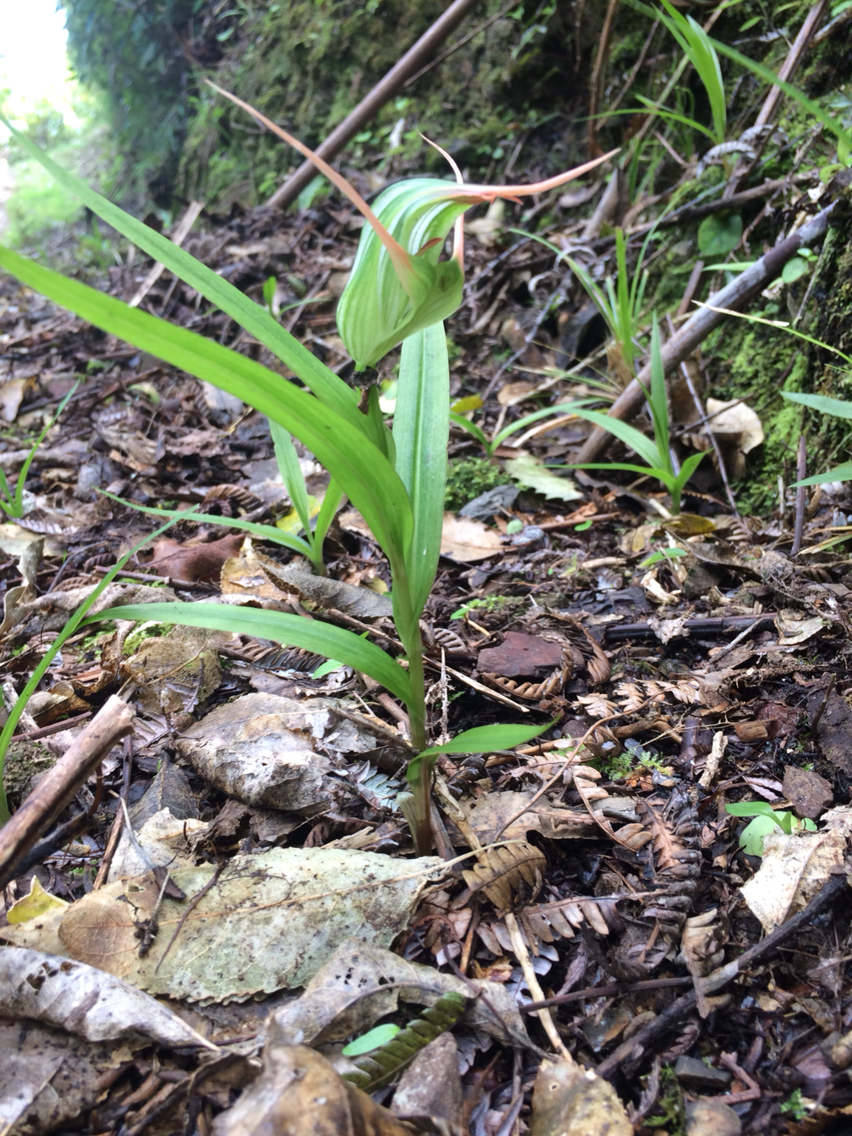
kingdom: Plantae
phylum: Tracheophyta
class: Liliopsida
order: Asparagales
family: Orchidaceae
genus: Pterostylis
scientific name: Pterostylis banksii
